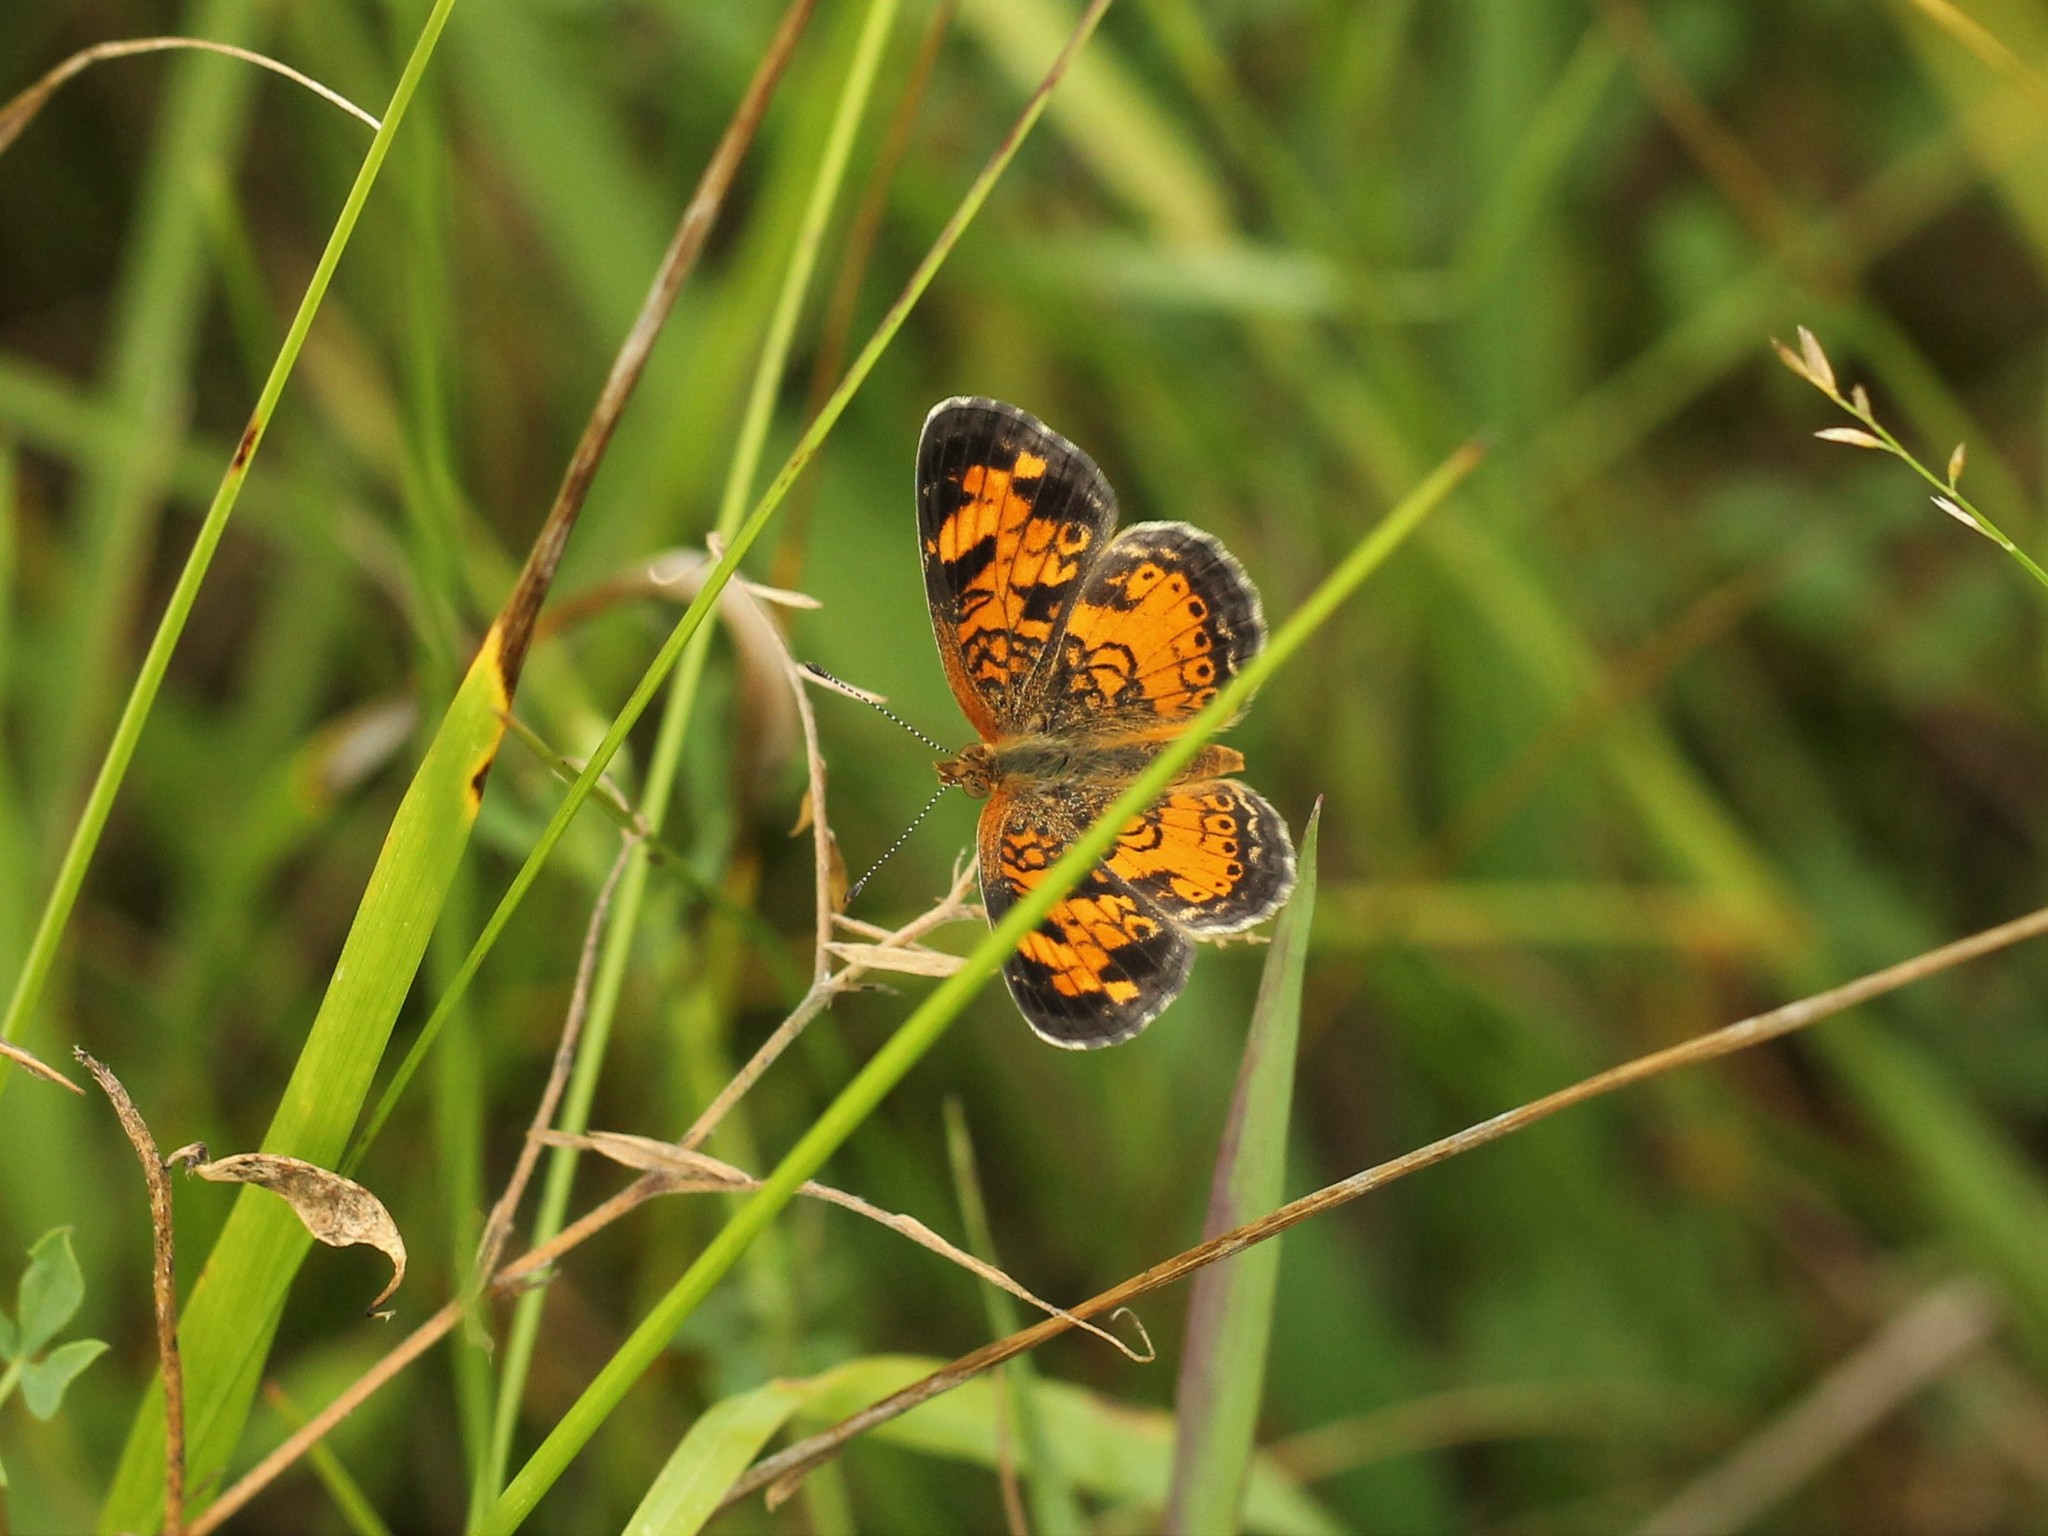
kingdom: Animalia
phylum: Arthropoda
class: Insecta
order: Lepidoptera
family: Nymphalidae
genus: Phyciodes
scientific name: Phyciodes tharos
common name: Pearl crescent
